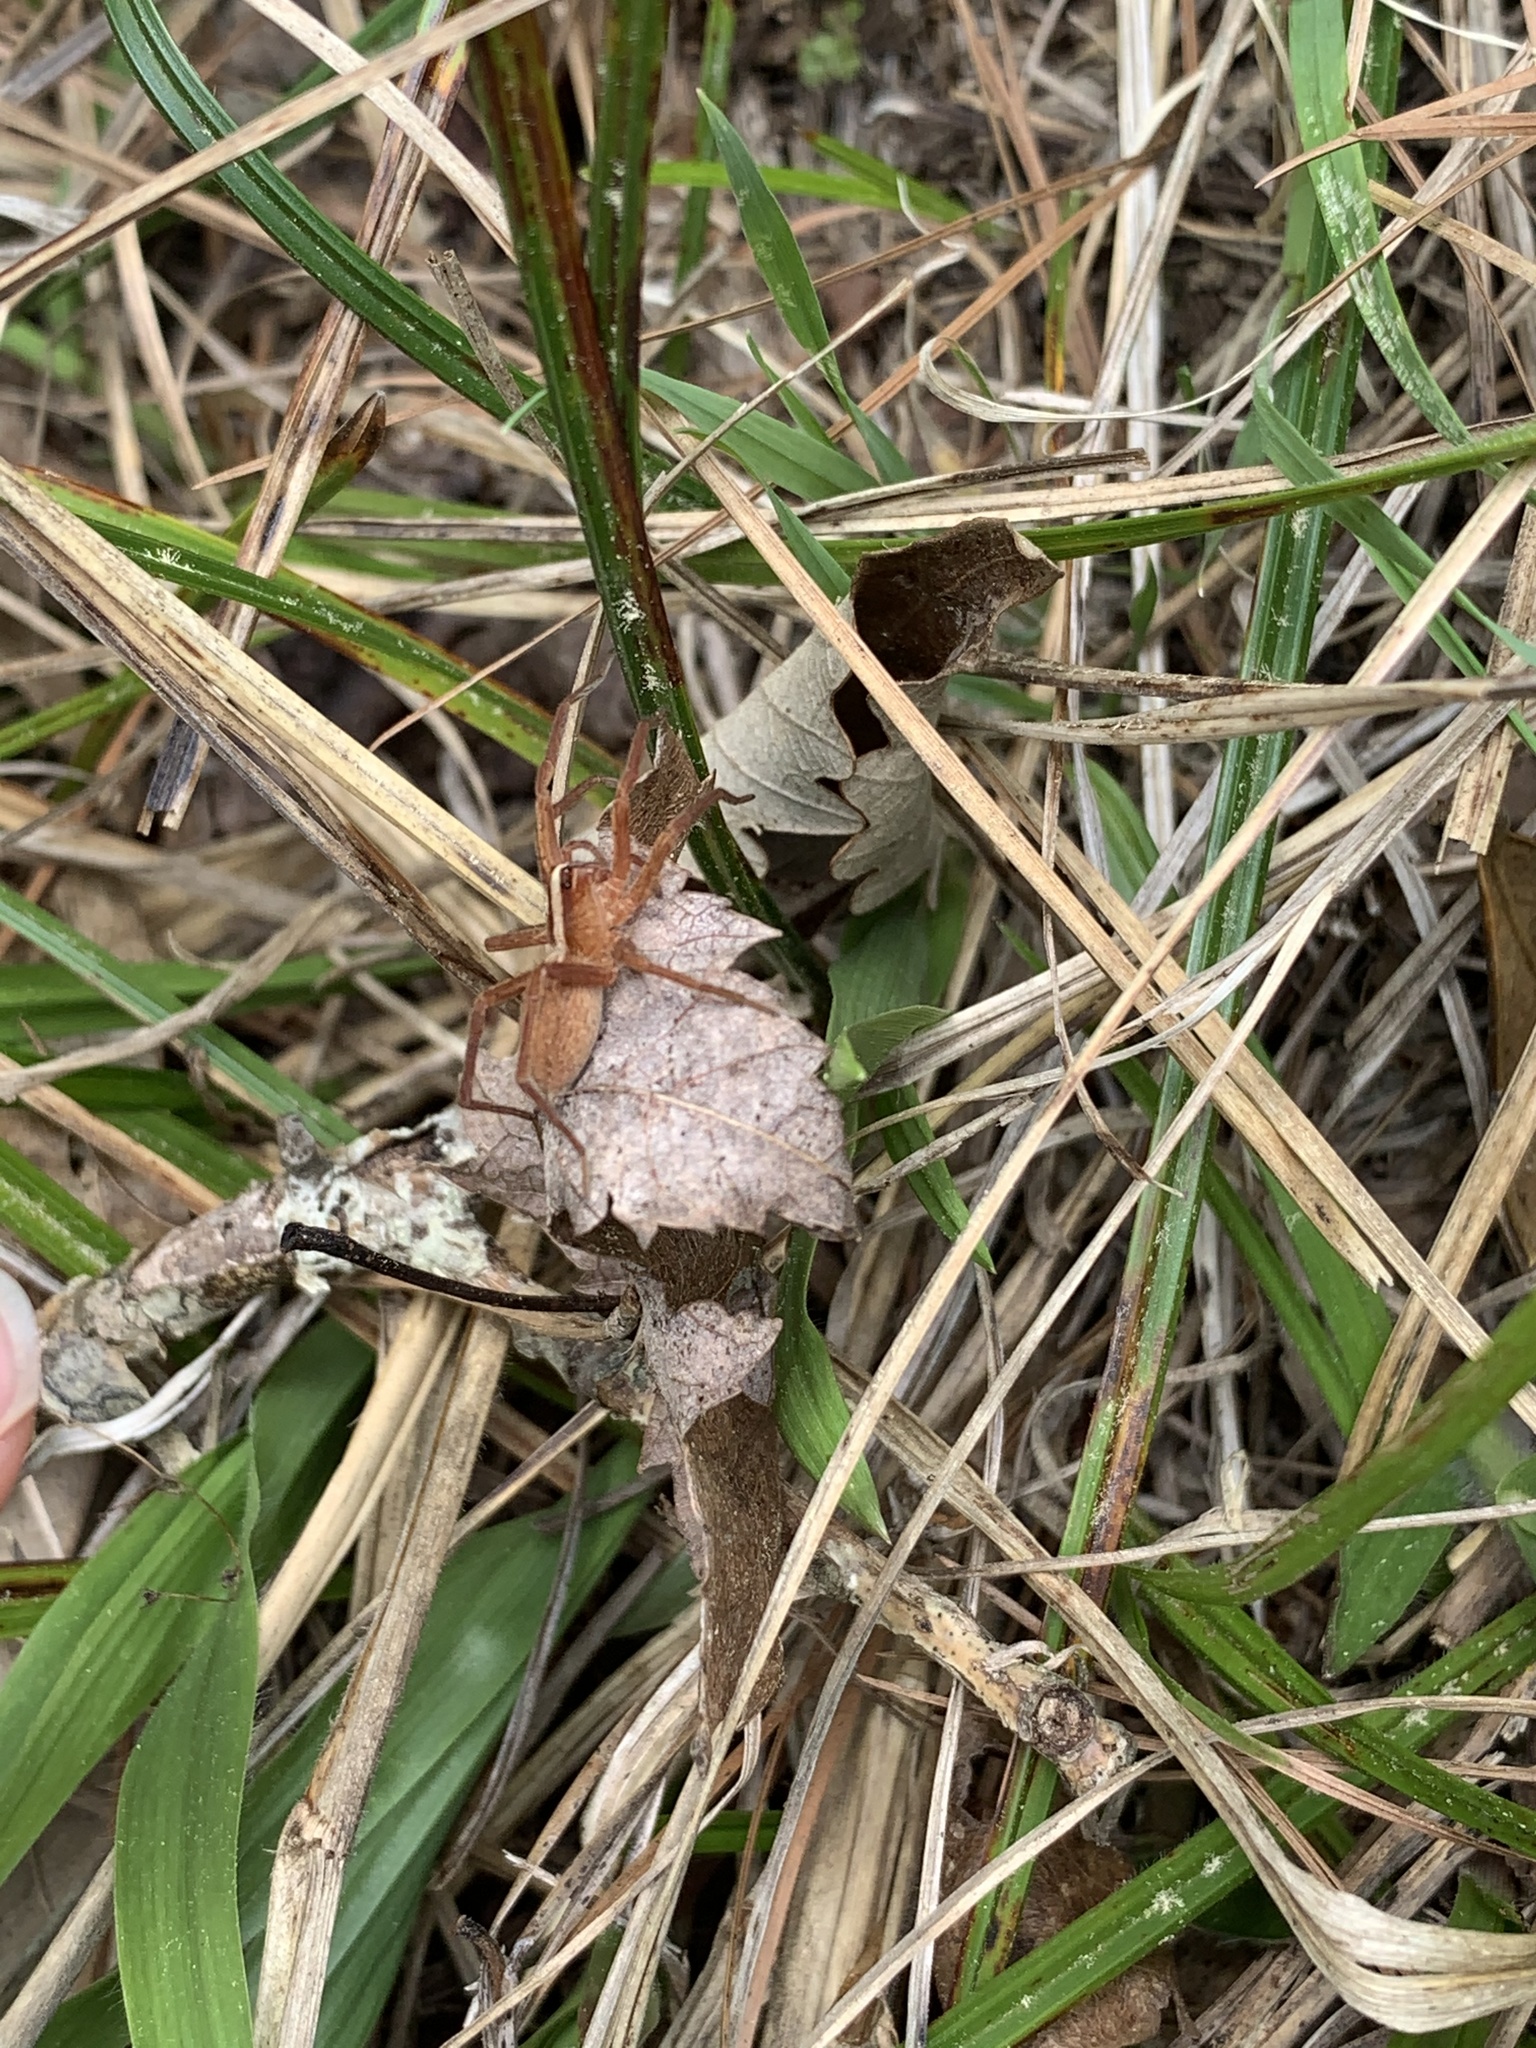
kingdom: Animalia
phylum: Arthropoda
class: Arachnida
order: Araneae
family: Lycosidae
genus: Rabidosa
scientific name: Rabidosa hentzi
